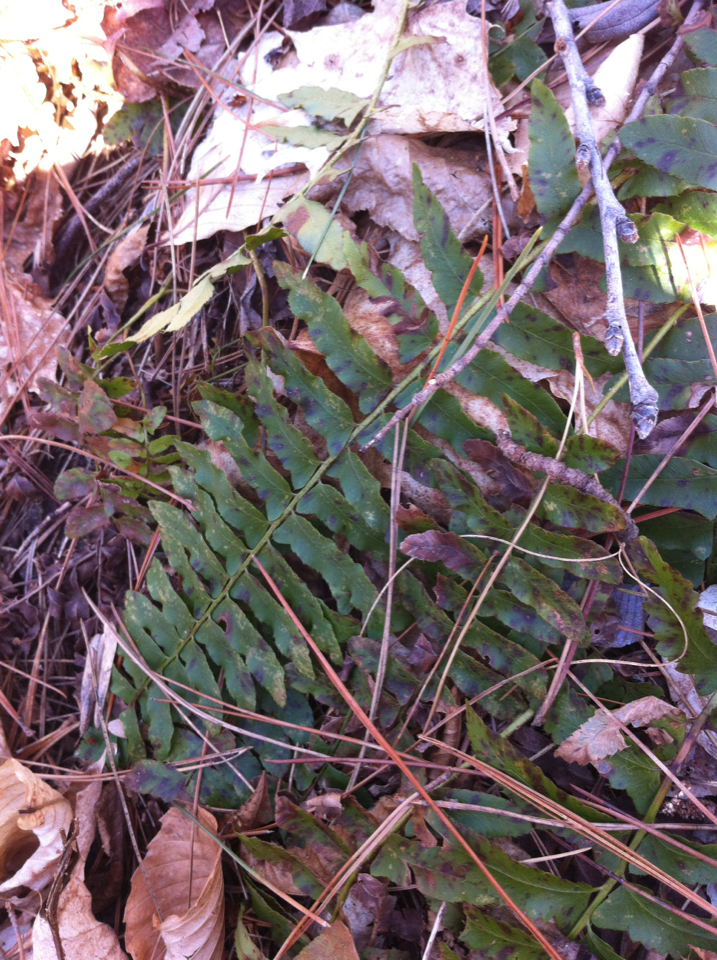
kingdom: Plantae
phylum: Tracheophyta
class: Polypodiopsida
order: Polypodiales
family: Dryopteridaceae
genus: Polystichum
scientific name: Polystichum acrostichoides
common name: Christmas fern
